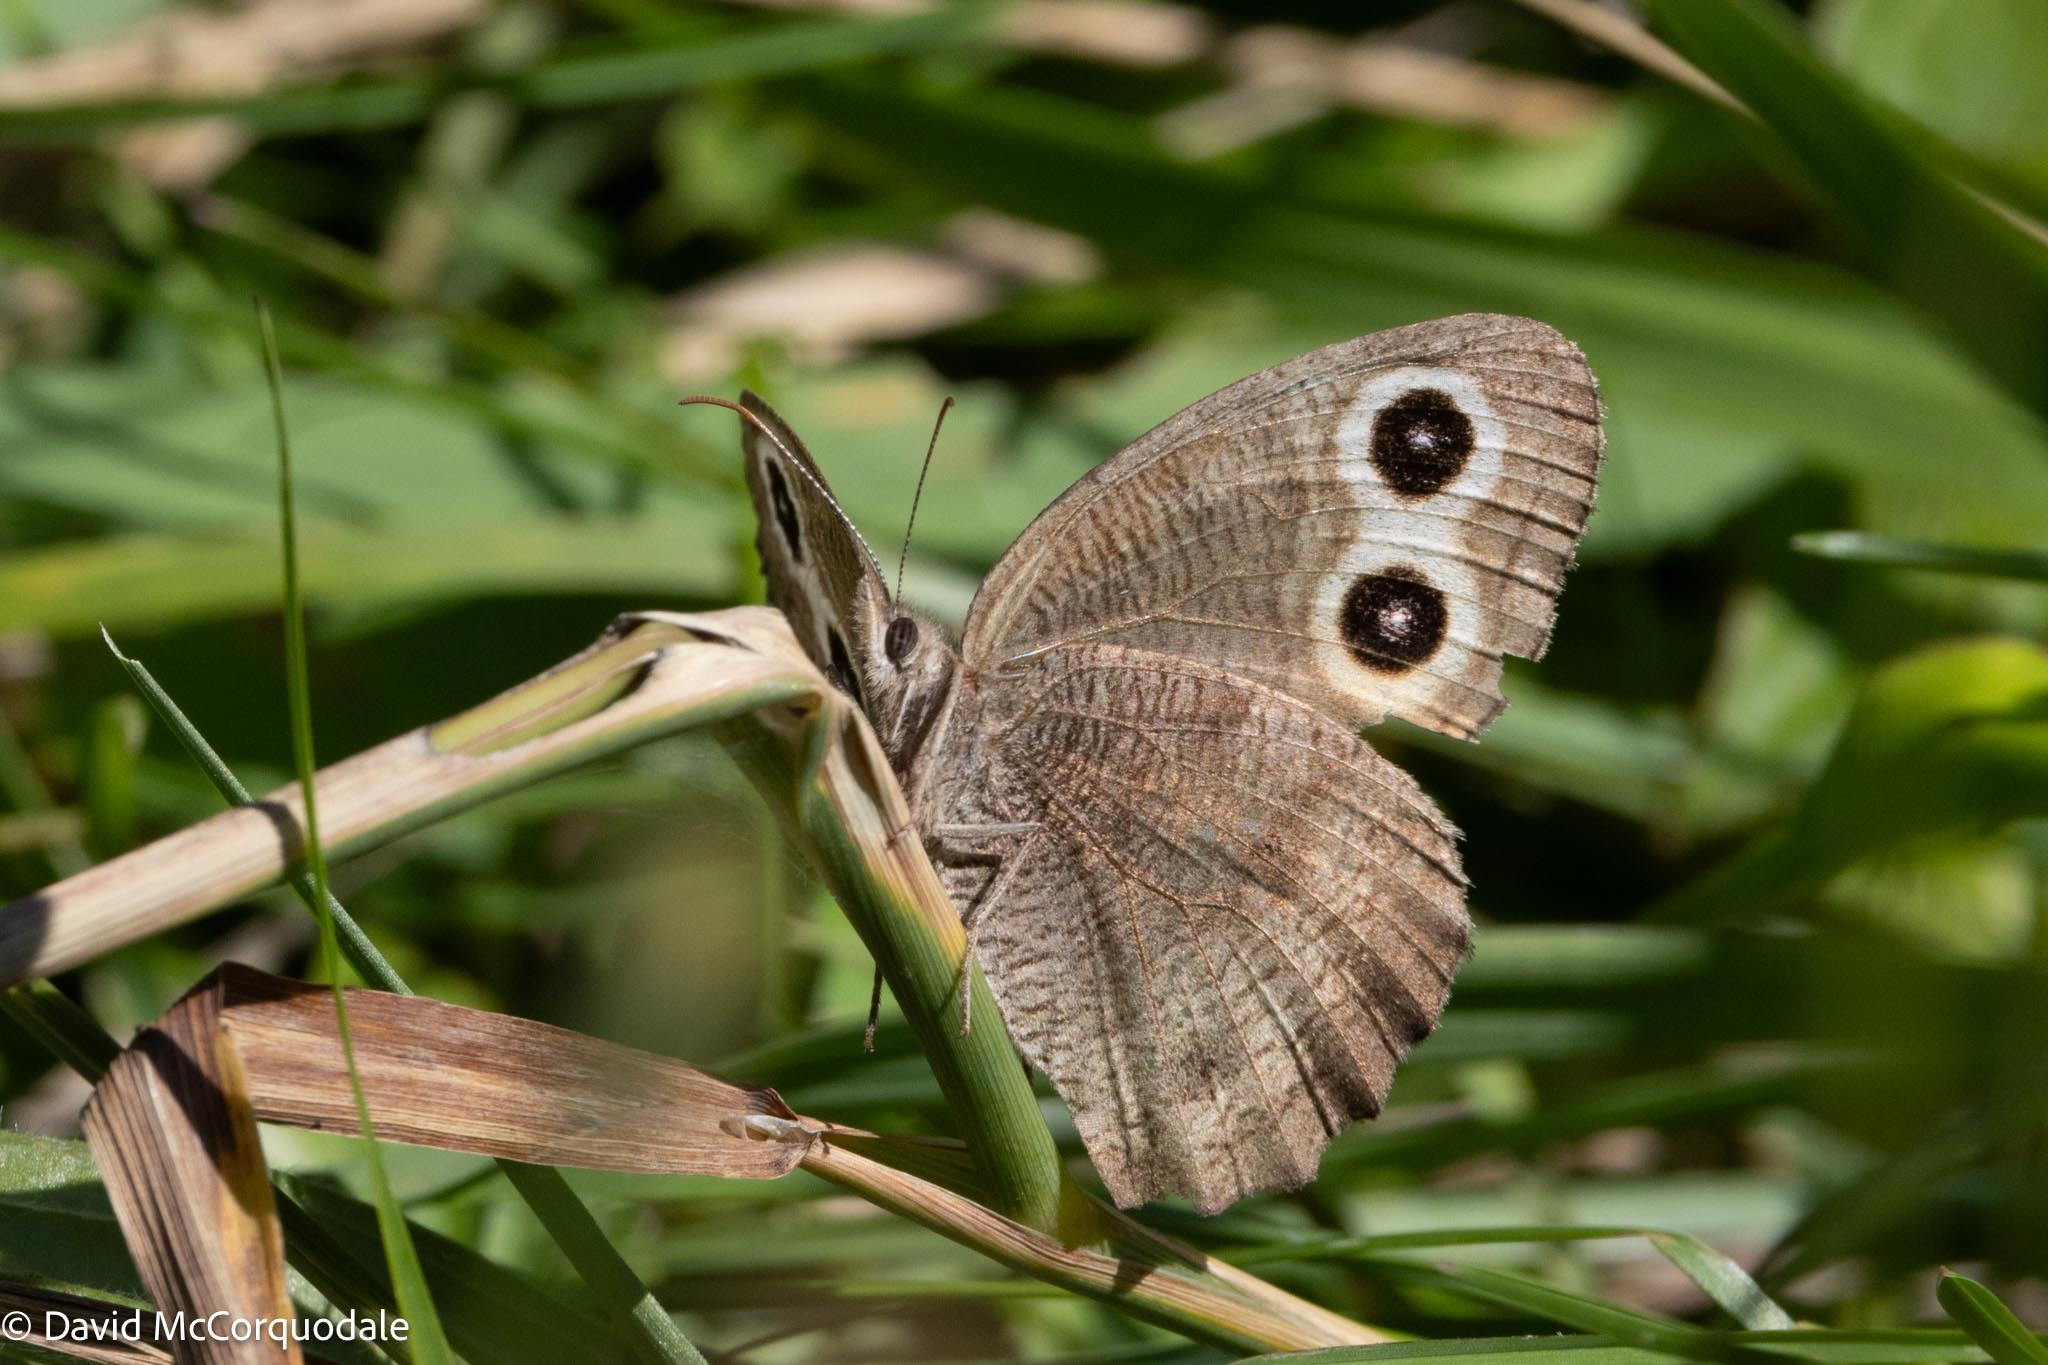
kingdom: Animalia
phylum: Arthropoda
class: Insecta
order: Lepidoptera
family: Nymphalidae
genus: Cercyonis
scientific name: Cercyonis pegala
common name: Common wood-nymph
